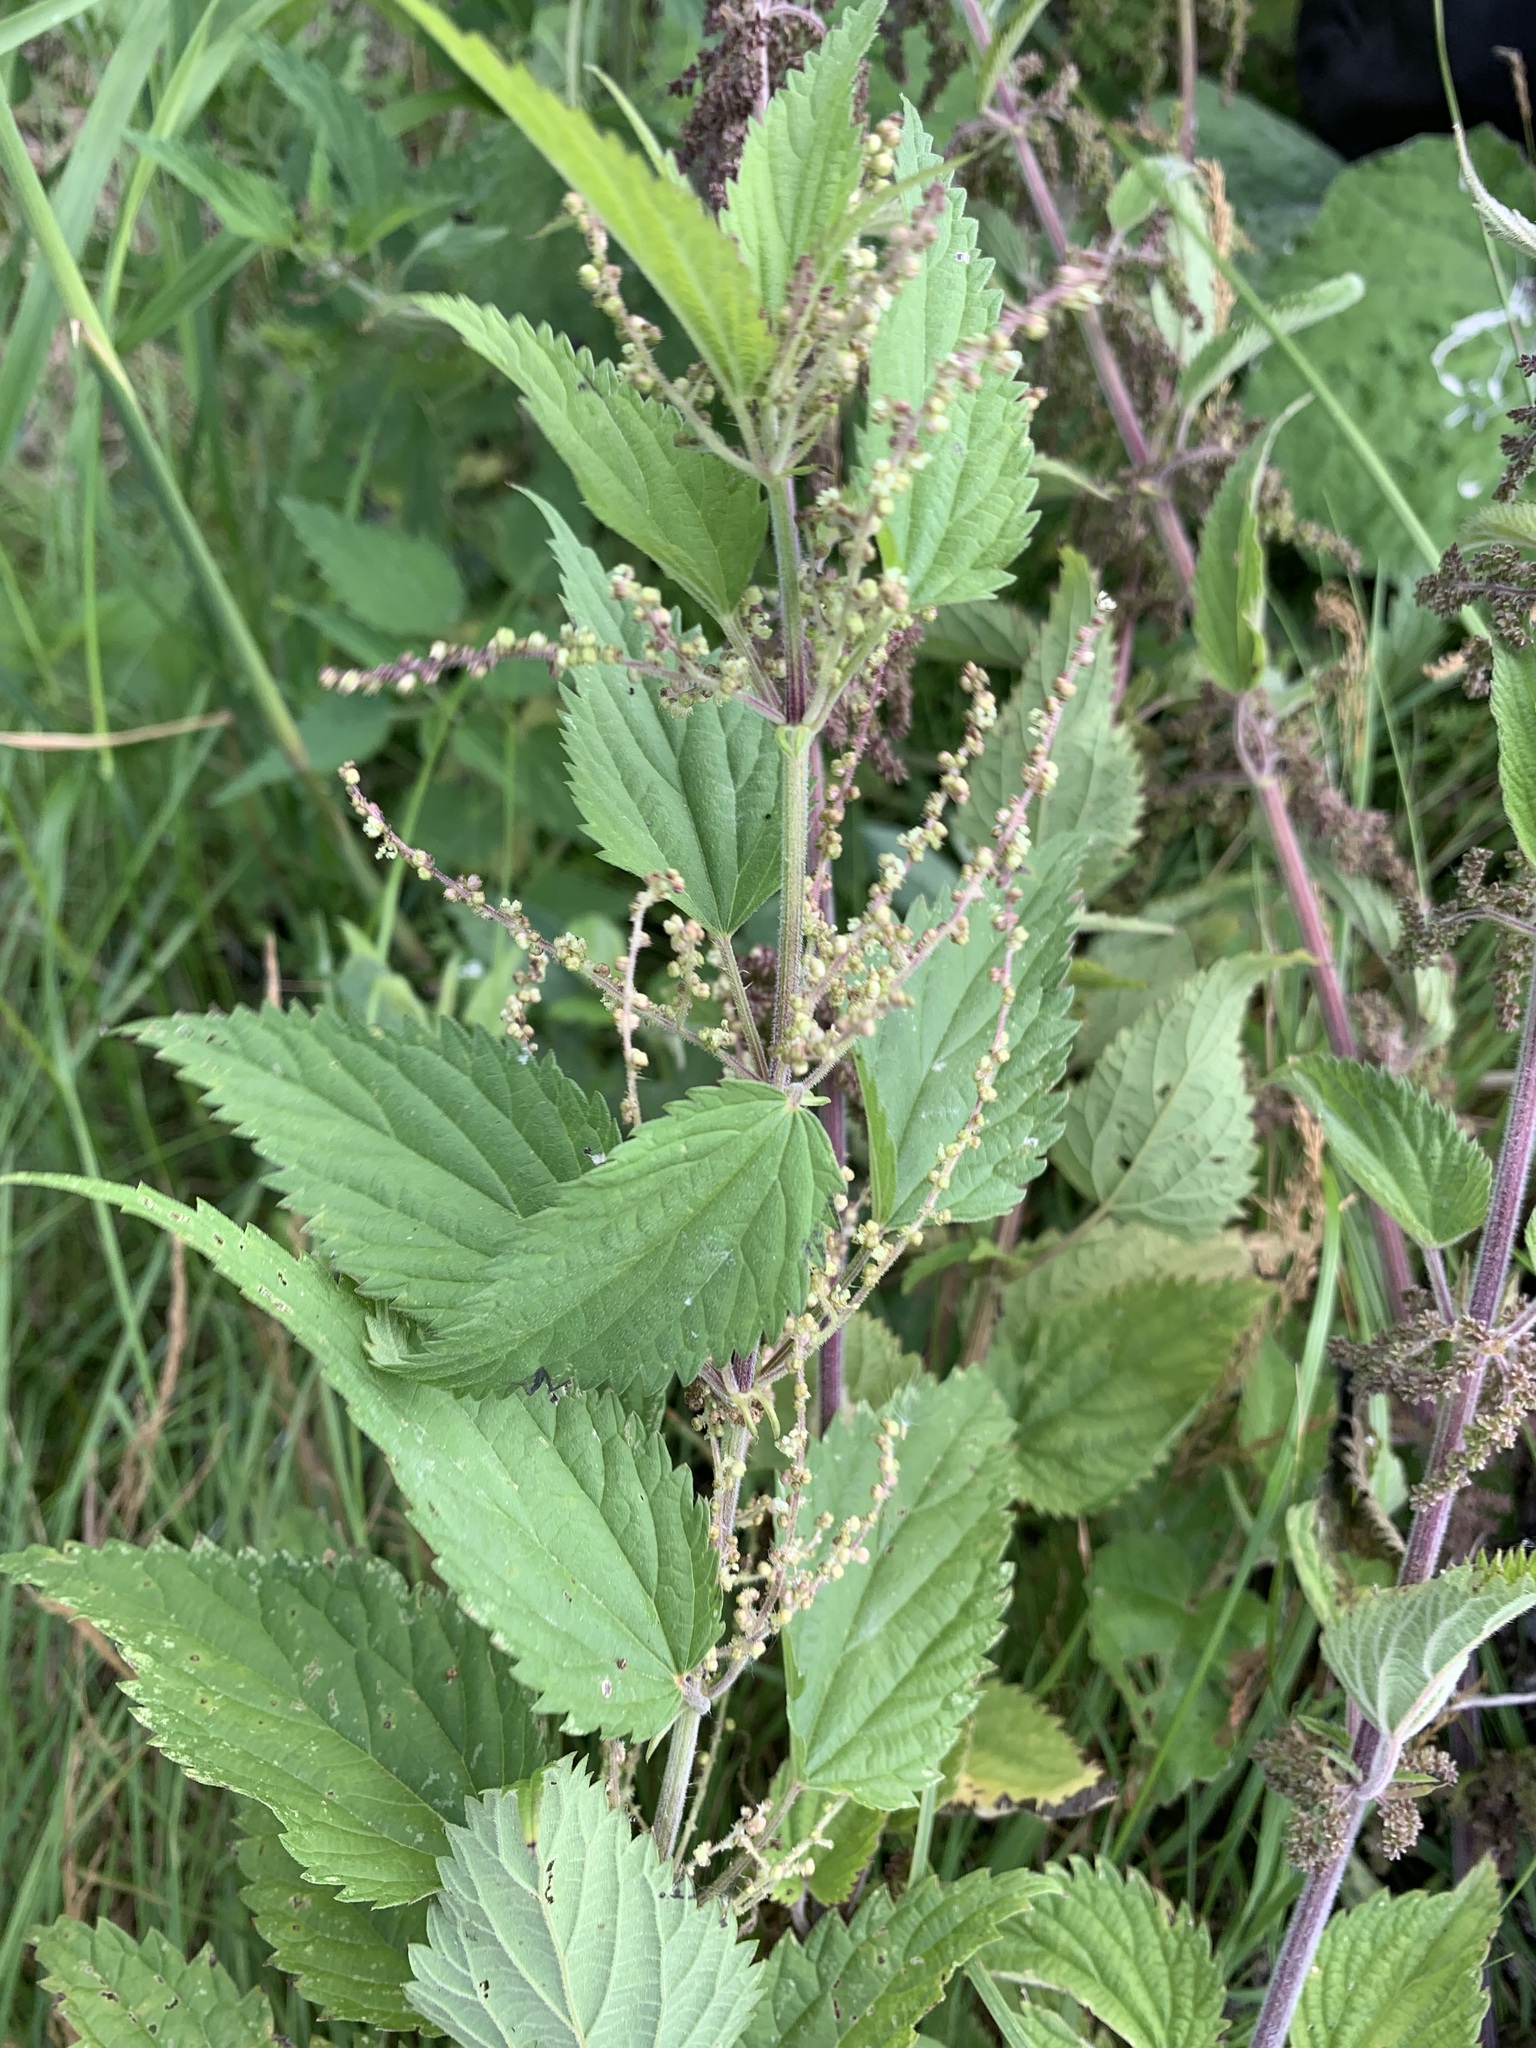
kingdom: Plantae
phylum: Tracheophyta
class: Magnoliopsida
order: Rosales
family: Urticaceae
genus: Urtica
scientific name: Urtica galeopsifolia
